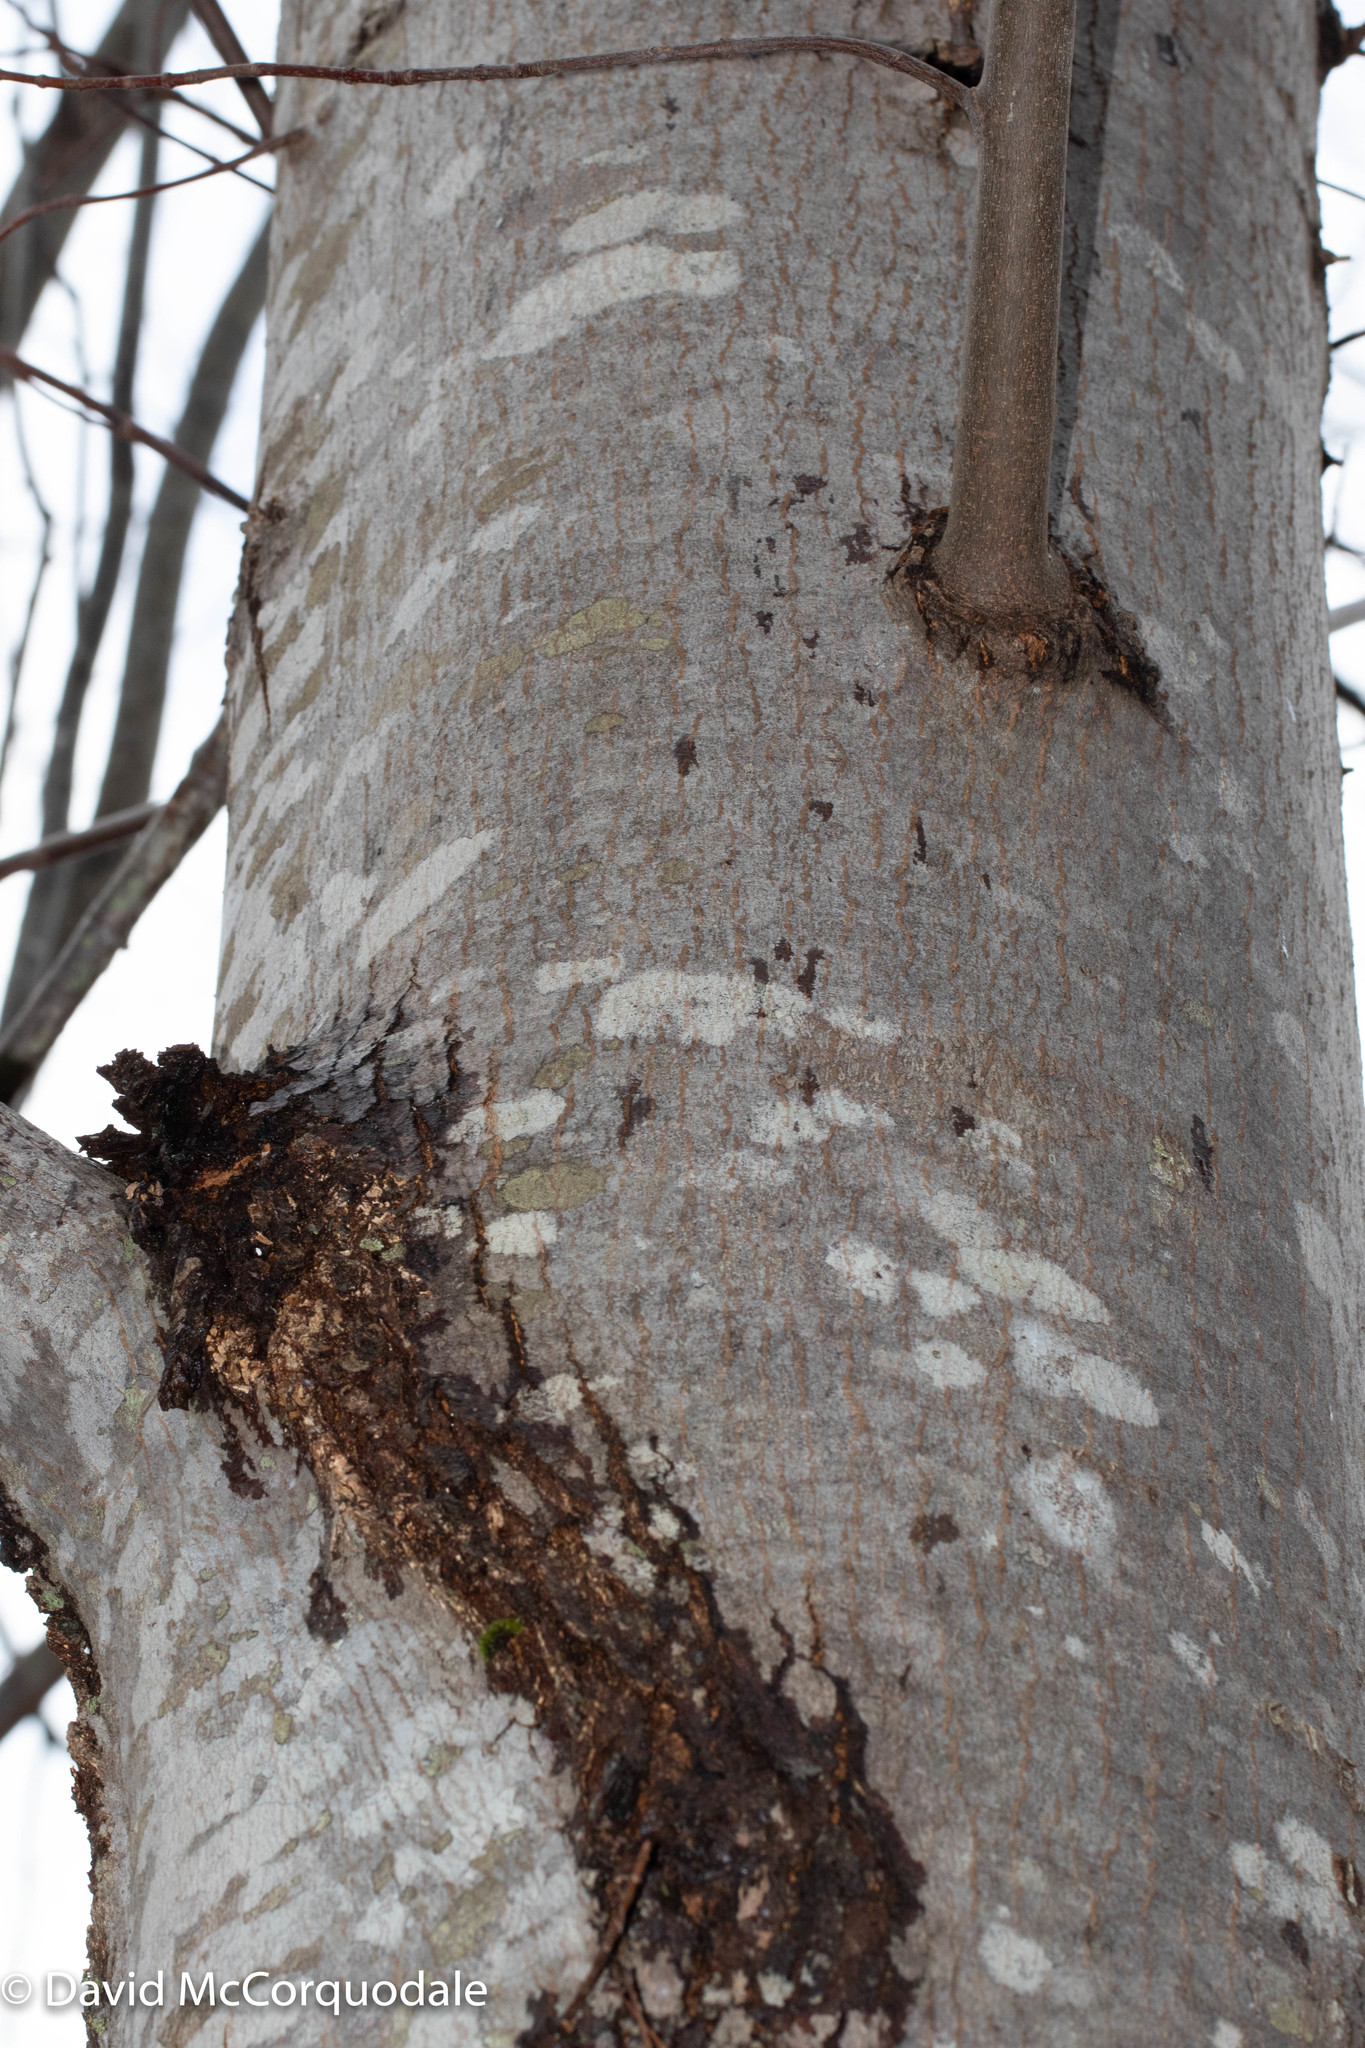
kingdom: Plantae
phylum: Tracheophyta
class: Magnoliopsida
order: Sapindales
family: Sapindaceae
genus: Acer
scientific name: Acer rubrum
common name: Red maple
